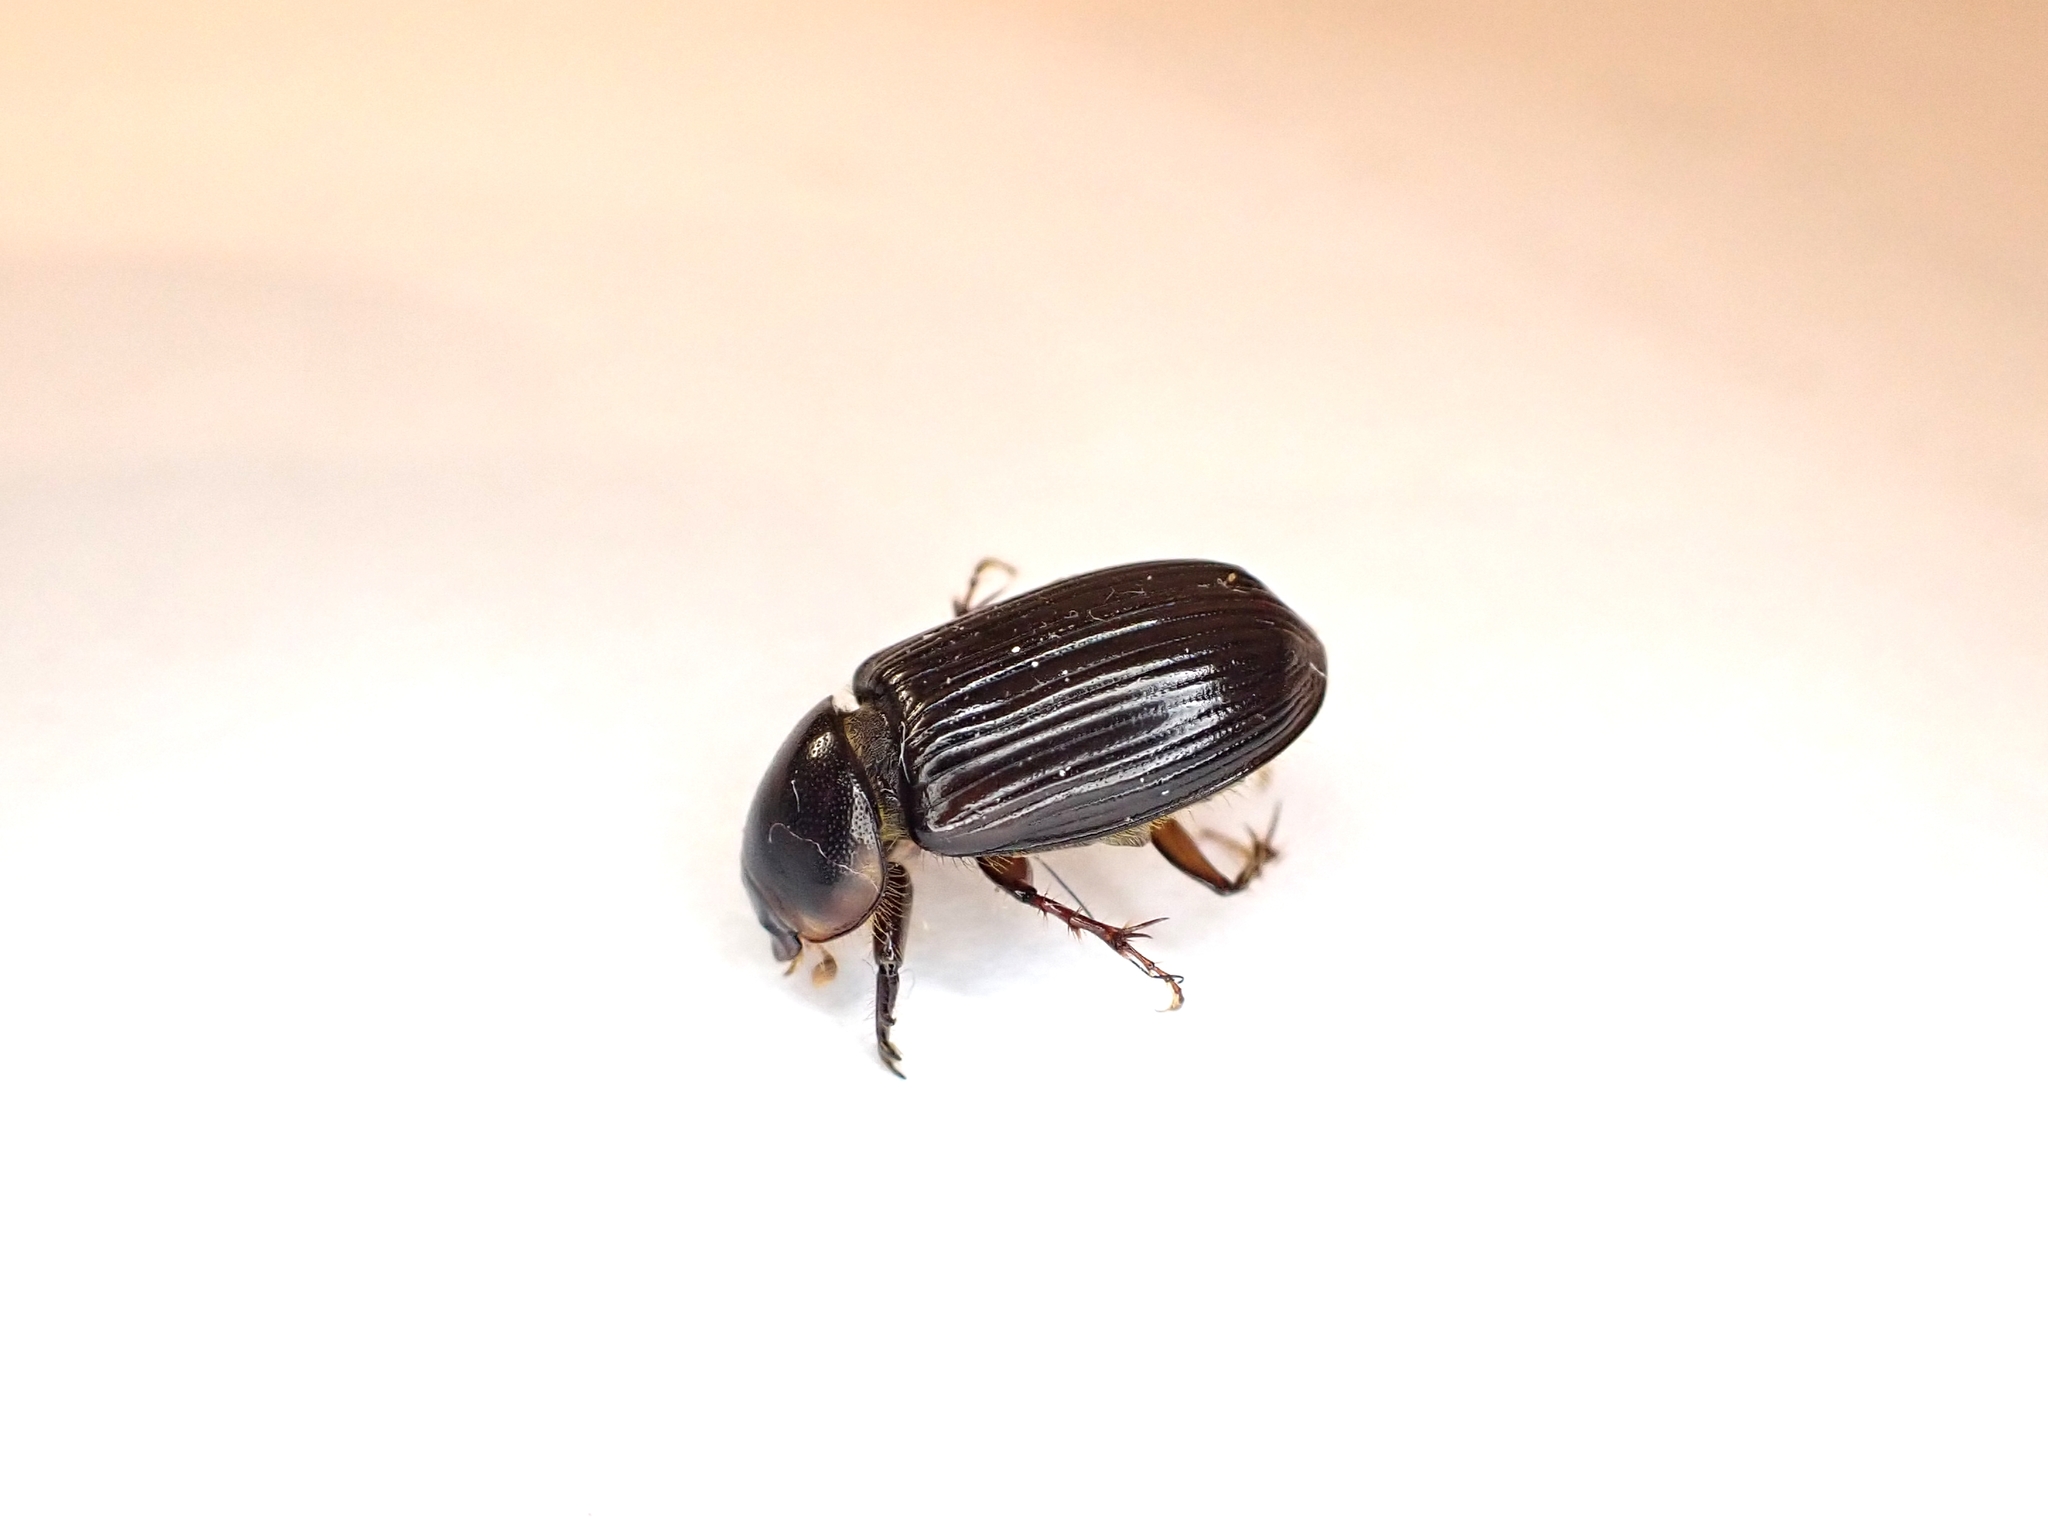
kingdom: Animalia
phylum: Arthropoda
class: Insecta
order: Coleoptera
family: Scarabaeidae
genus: Acrossidius
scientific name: Acrossidius tasmaniae
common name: Black-headed pasture cockchafer
